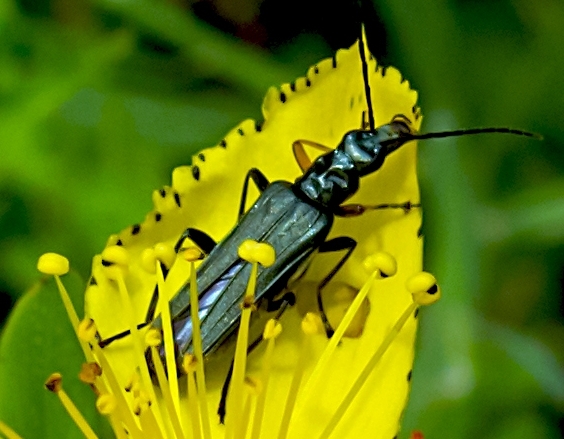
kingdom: Animalia
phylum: Arthropoda
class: Insecta
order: Coleoptera
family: Oedemeridae
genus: Oedemera
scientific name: Oedemera flavipes
